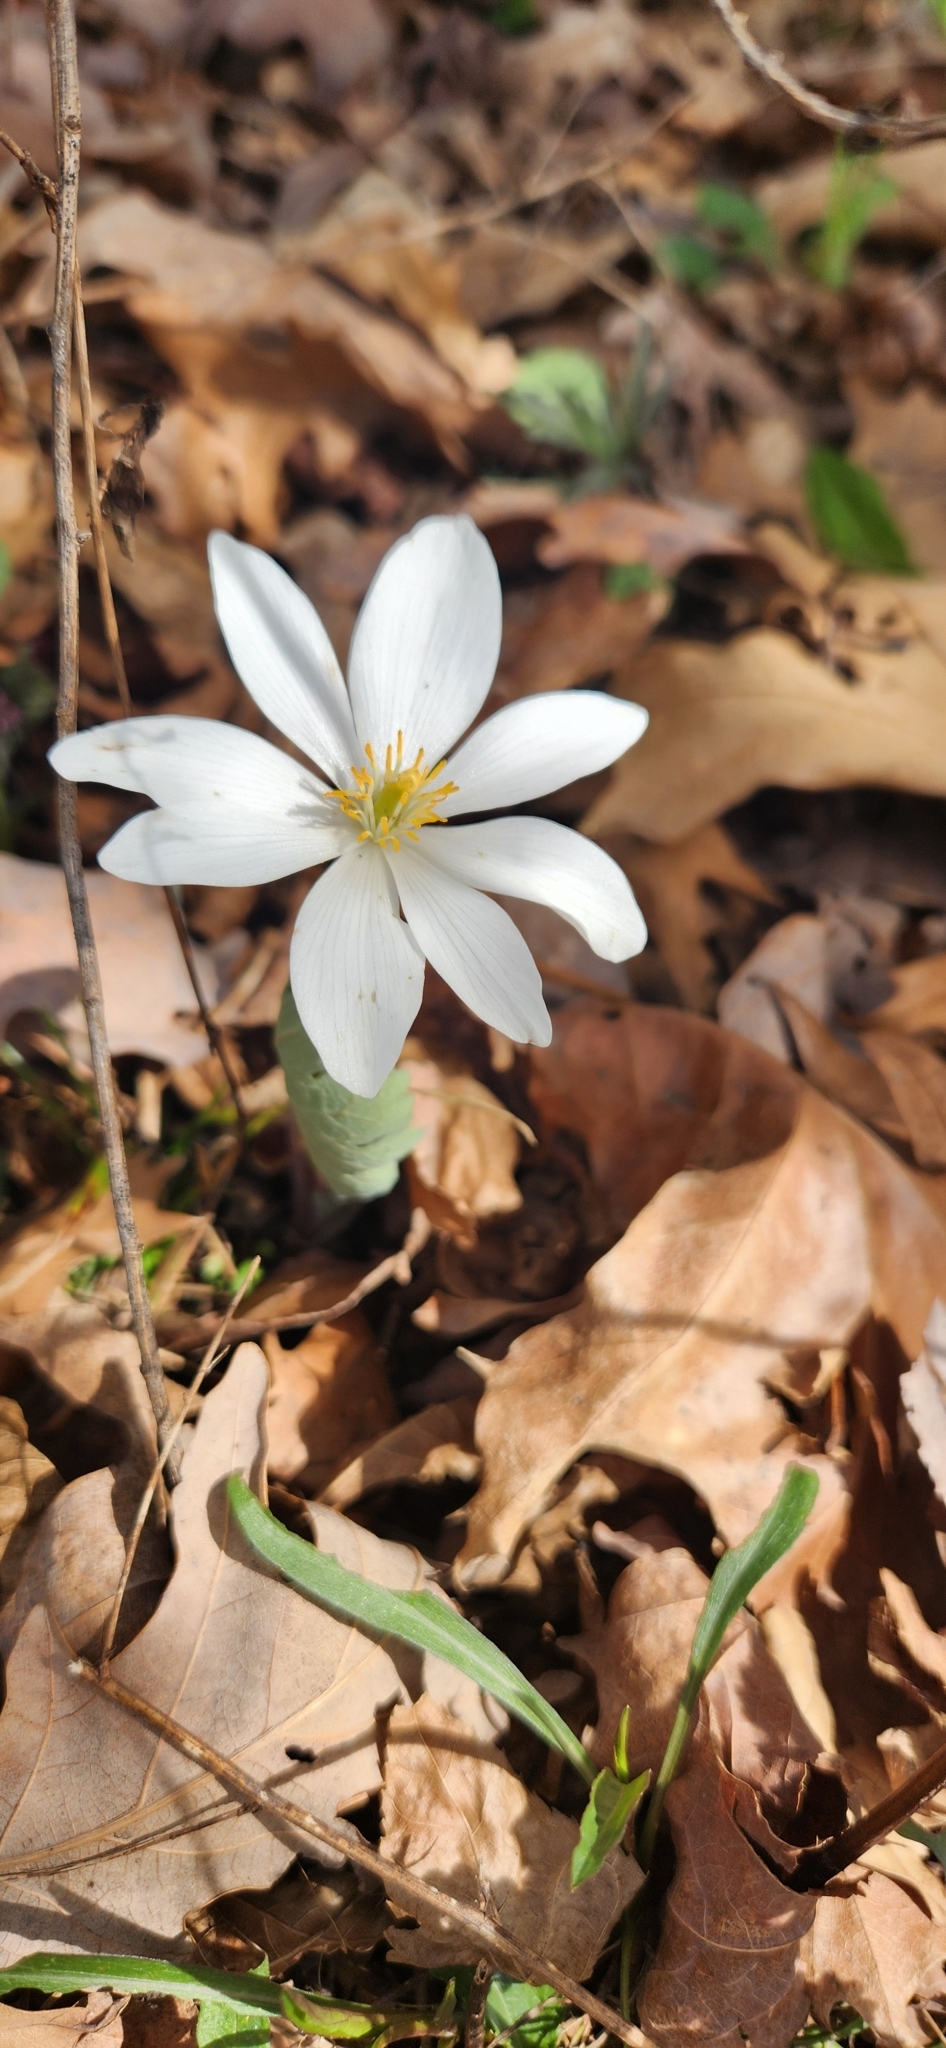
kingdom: Plantae
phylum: Tracheophyta
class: Magnoliopsida
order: Ranunculales
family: Papaveraceae
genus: Sanguinaria
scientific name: Sanguinaria canadensis
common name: Bloodroot
